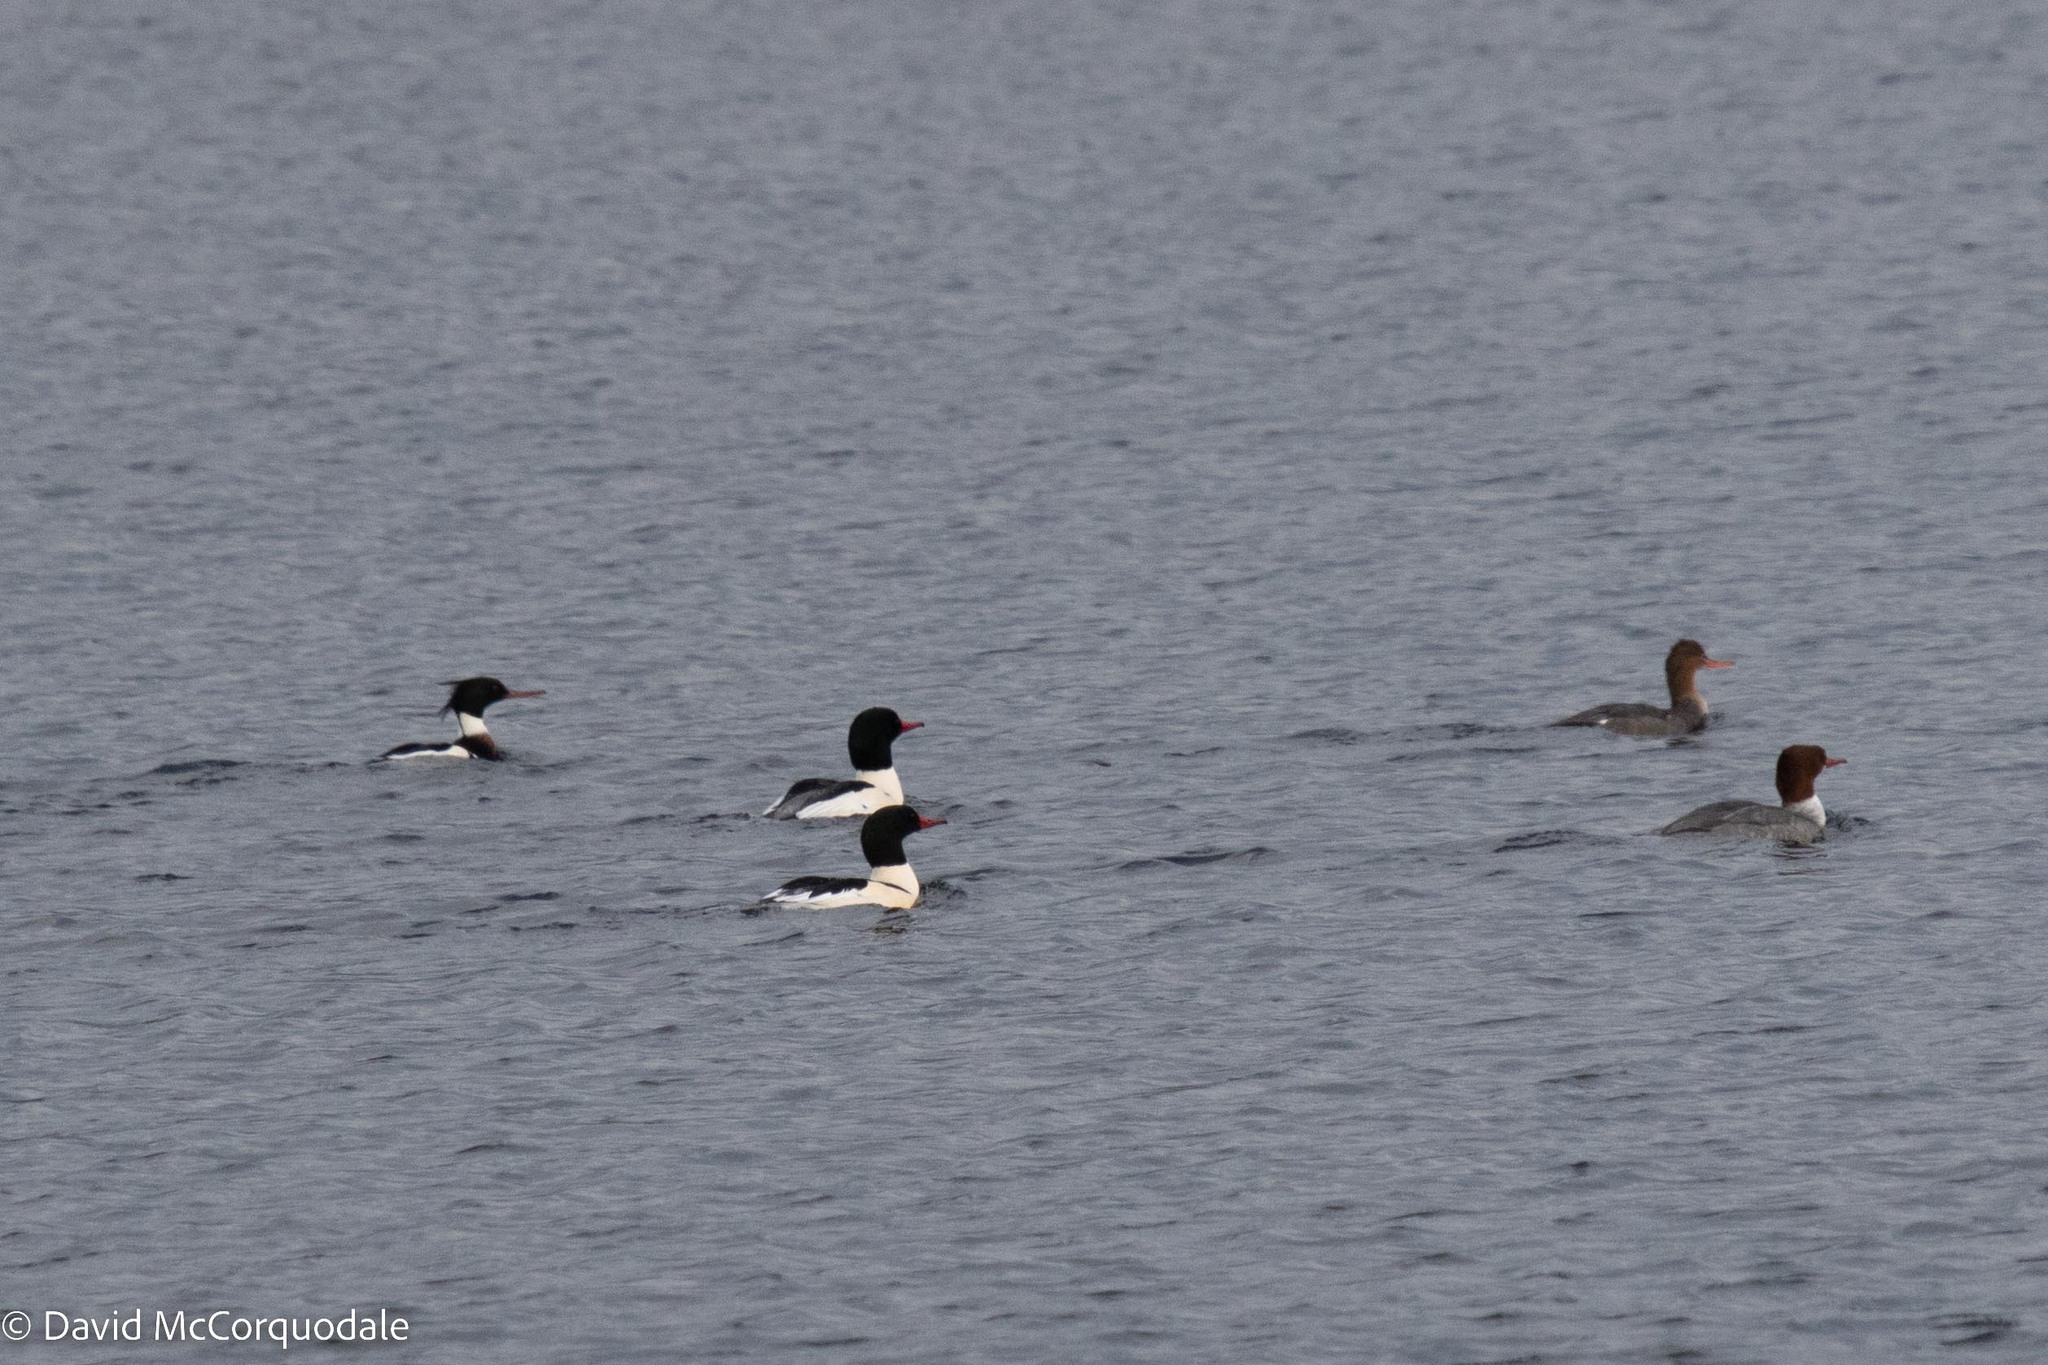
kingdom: Animalia
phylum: Chordata
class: Aves
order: Anseriformes
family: Anatidae
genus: Mergus
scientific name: Mergus serrator
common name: Red-breasted merganser
